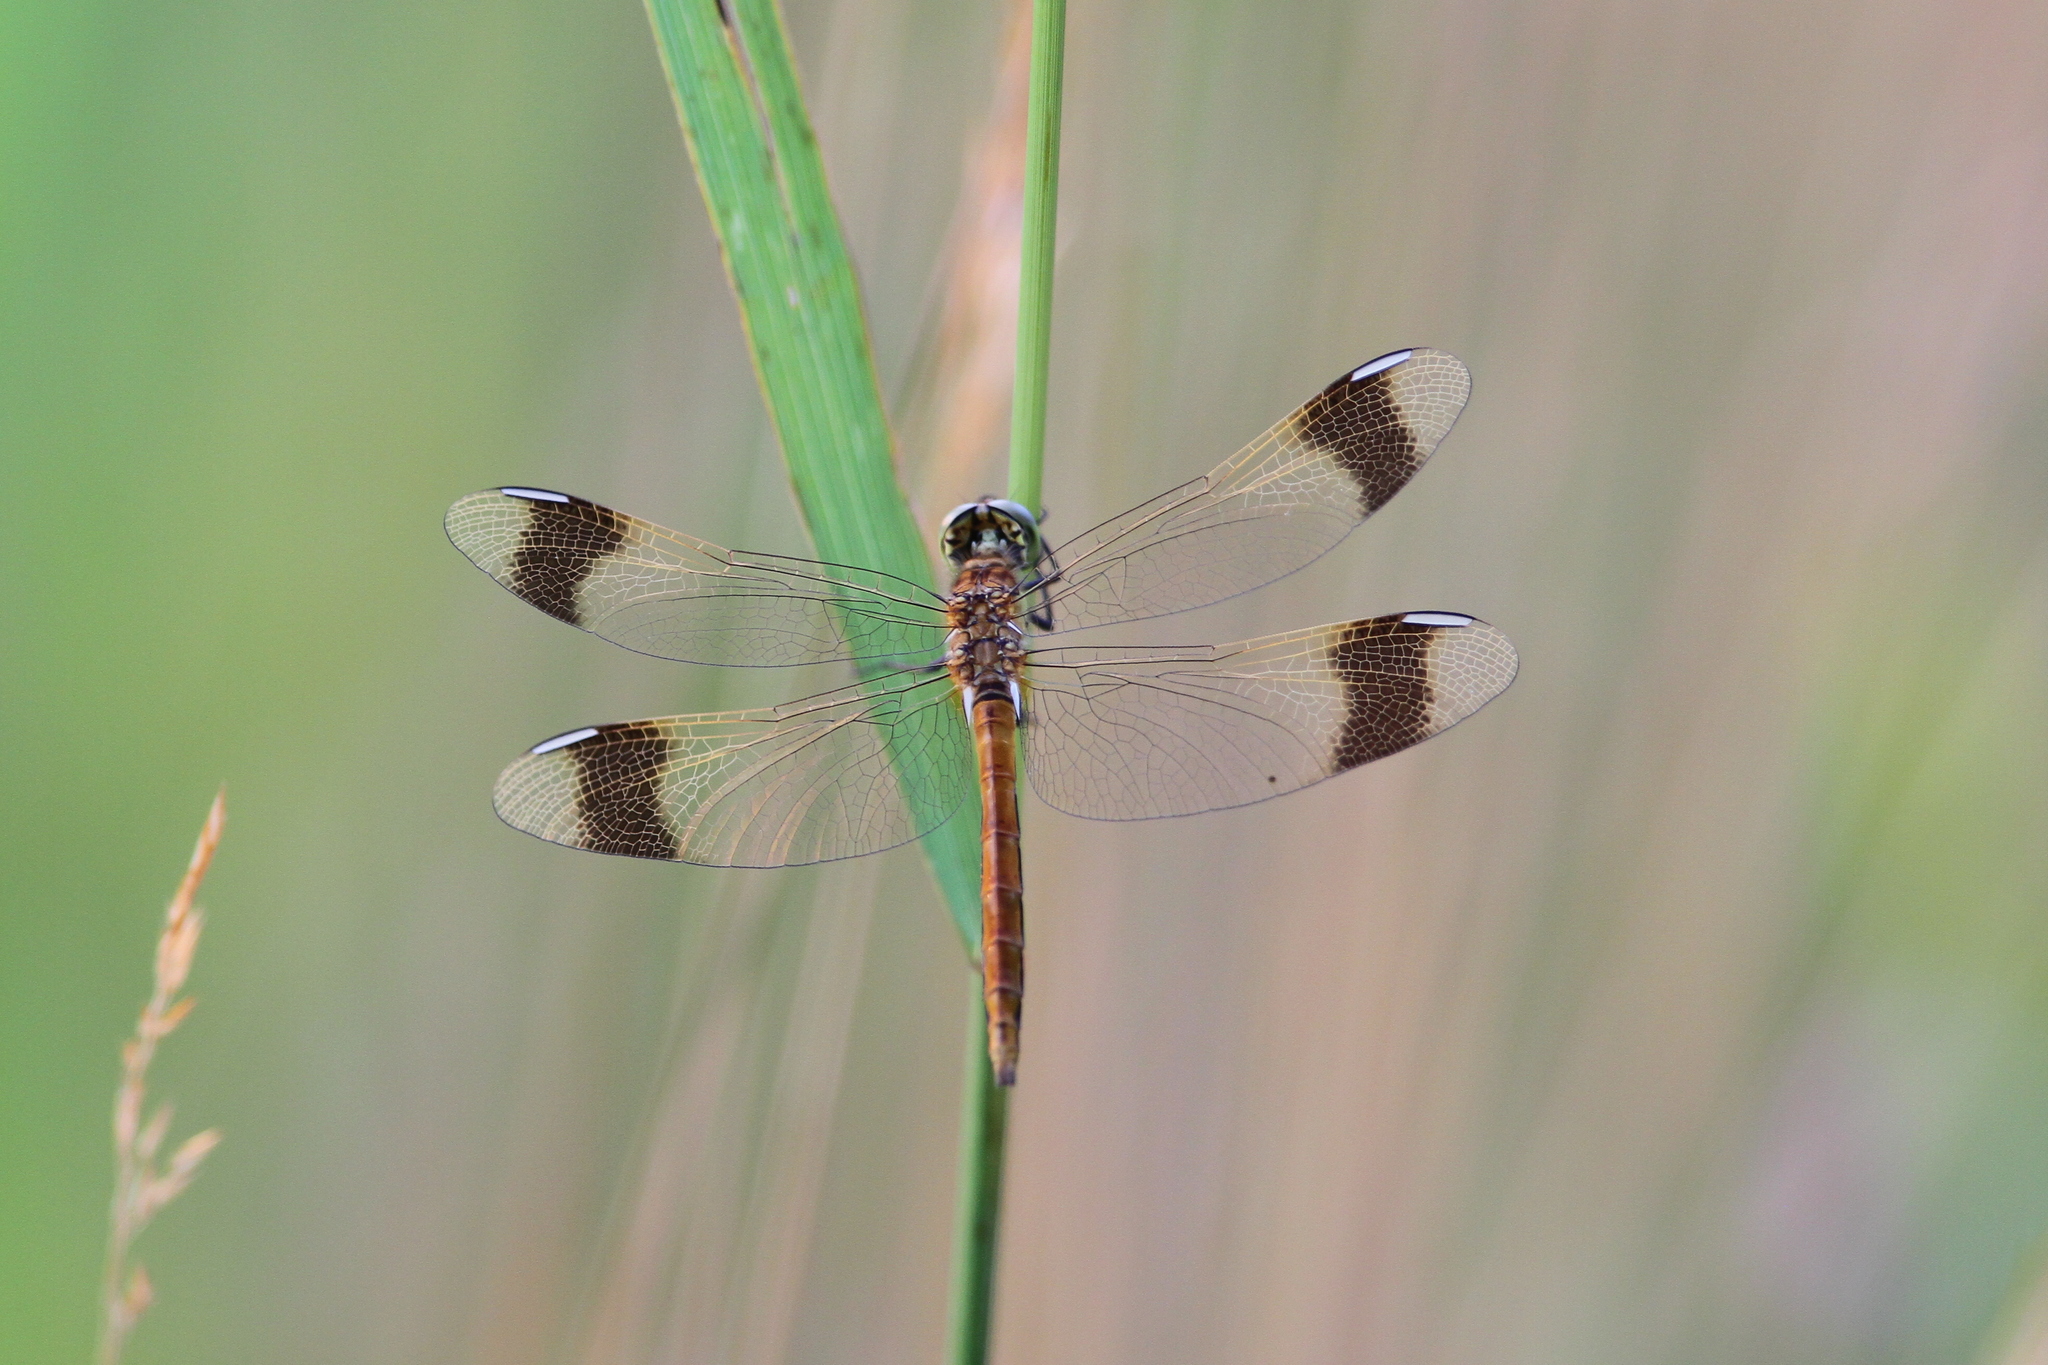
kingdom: Animalia
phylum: Arthropoda
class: Insecta
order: Odonata
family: Libellulidae
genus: Sympetrum
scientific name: Sympetrum pedemontanum
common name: Banded darter
